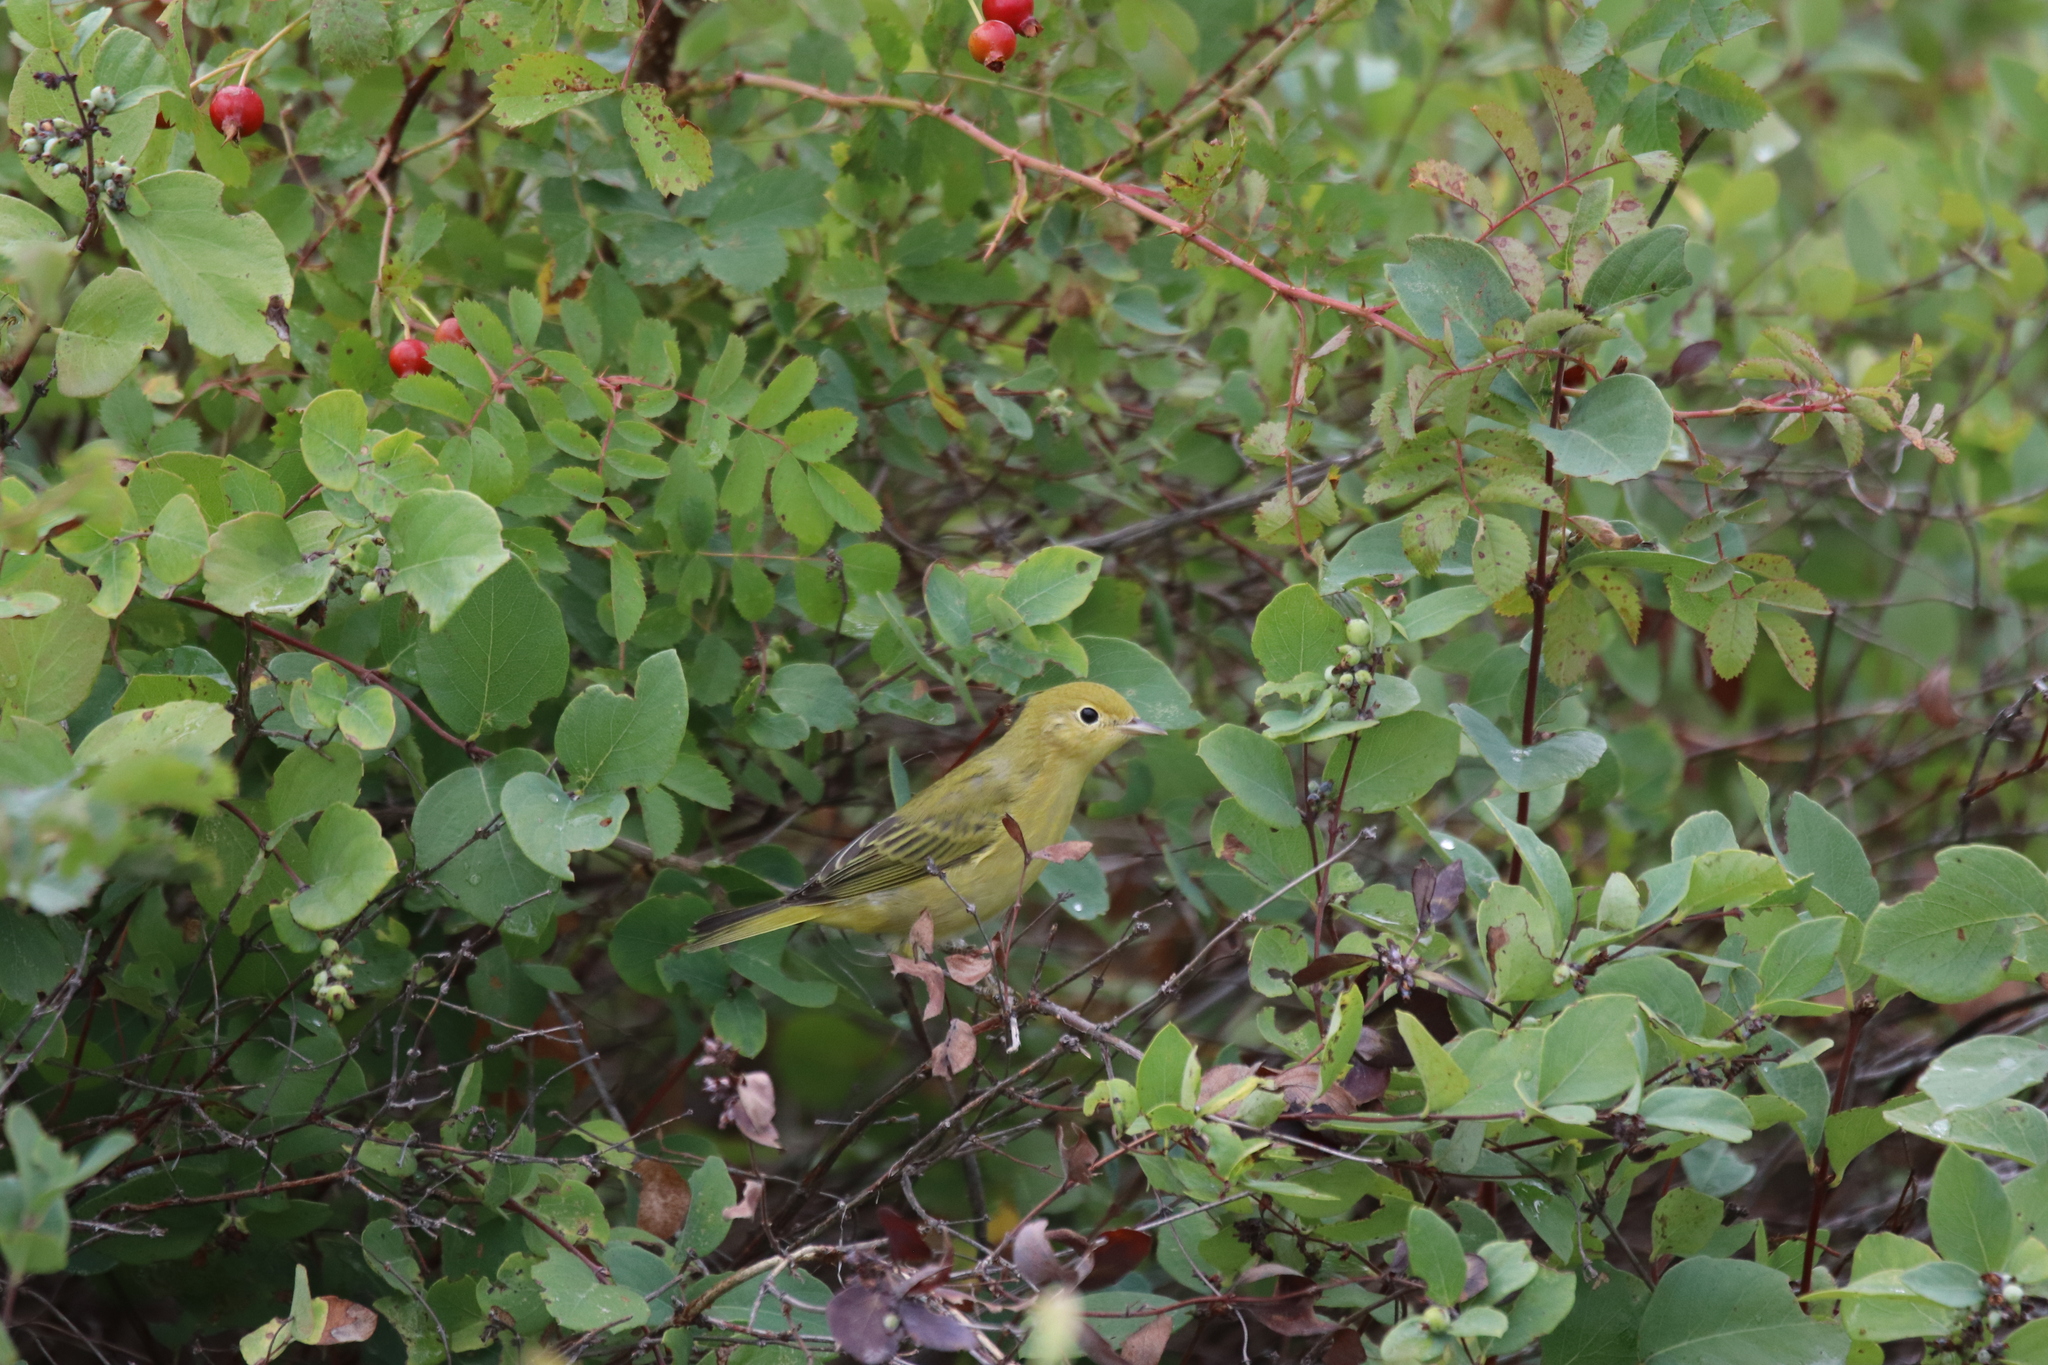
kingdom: Animalia
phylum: Chordata
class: Aves
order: Passeriformes
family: Parulidae
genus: Setophaga
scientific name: Setophaga petechia
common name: Yellow warbler
